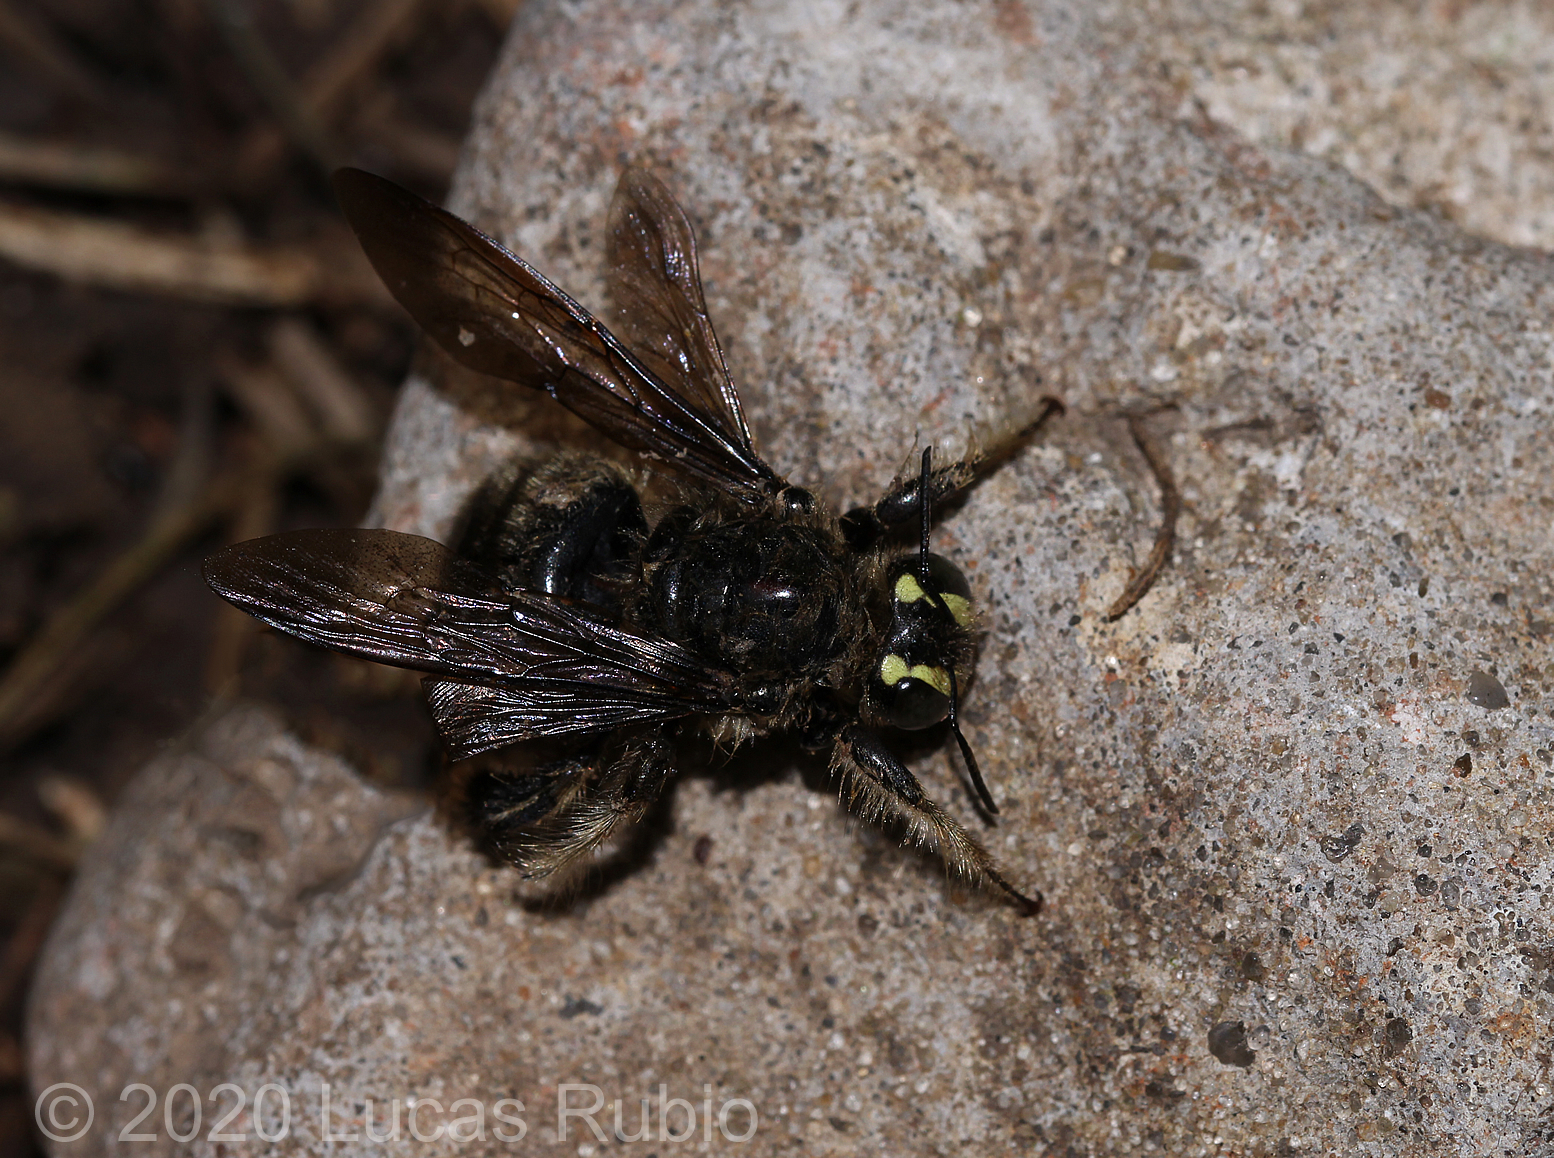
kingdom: Animalia
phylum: Arthropoda
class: Insecta
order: Hymenoptera
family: Apidae
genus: Xylocopa
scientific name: Xylocopa artifex
